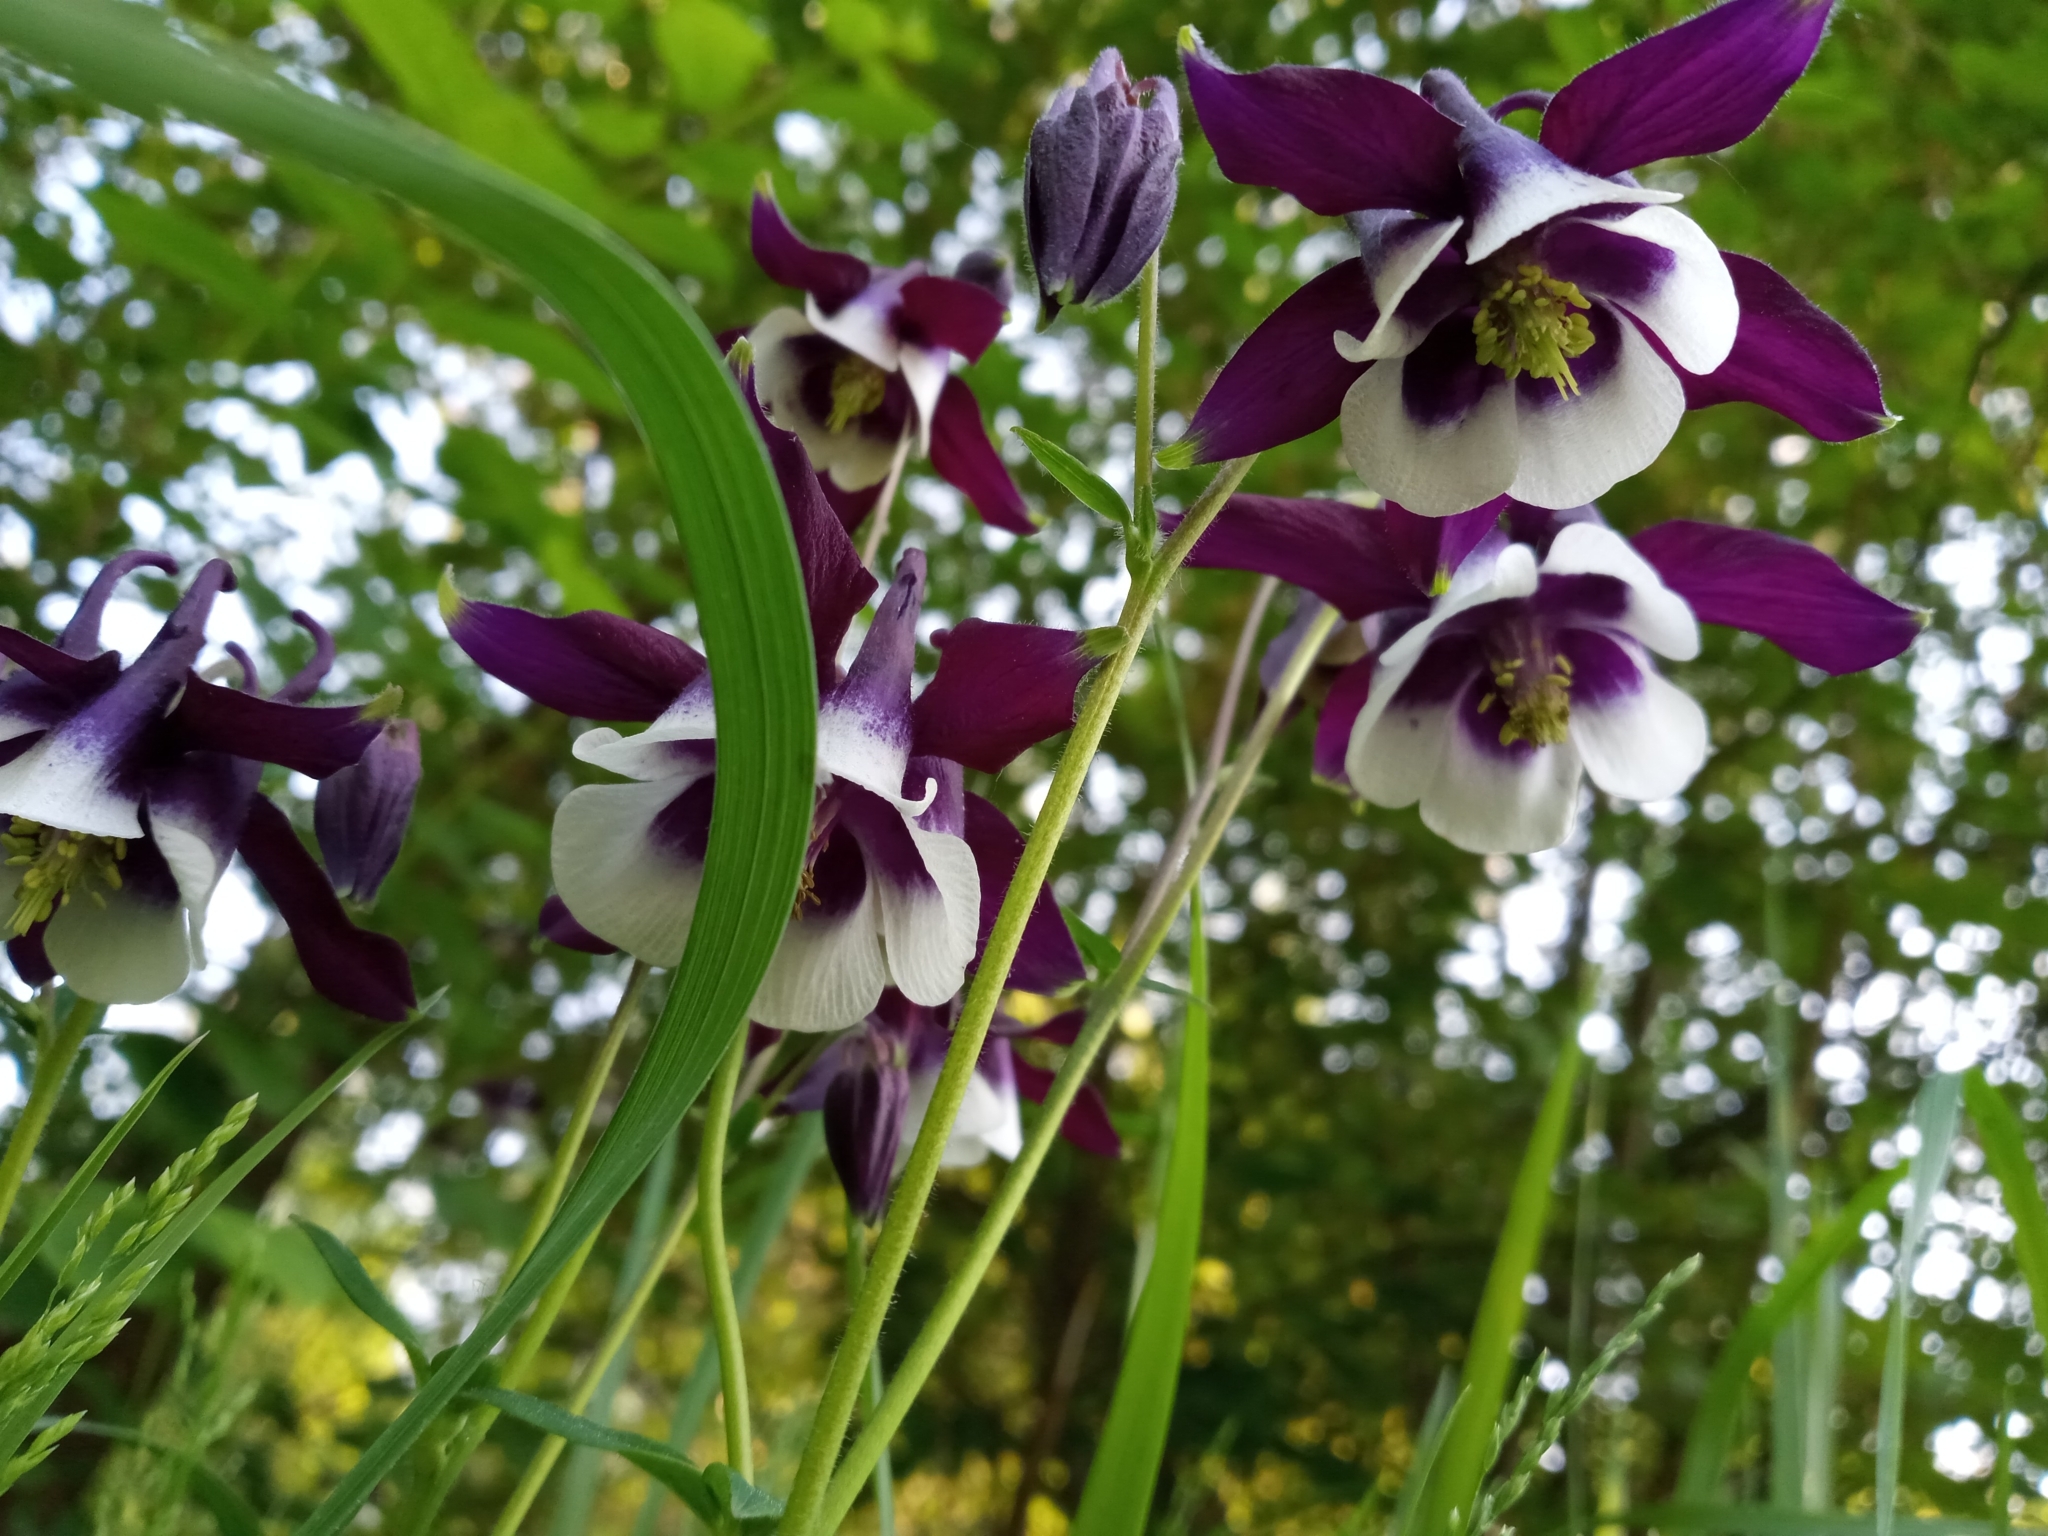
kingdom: Plantae
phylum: Tracheophyta
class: Magnoliopsida
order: Ranunculales
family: Ranunculaceae
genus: Aquilegia
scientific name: Aquilegia vulgaris
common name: Columbine
